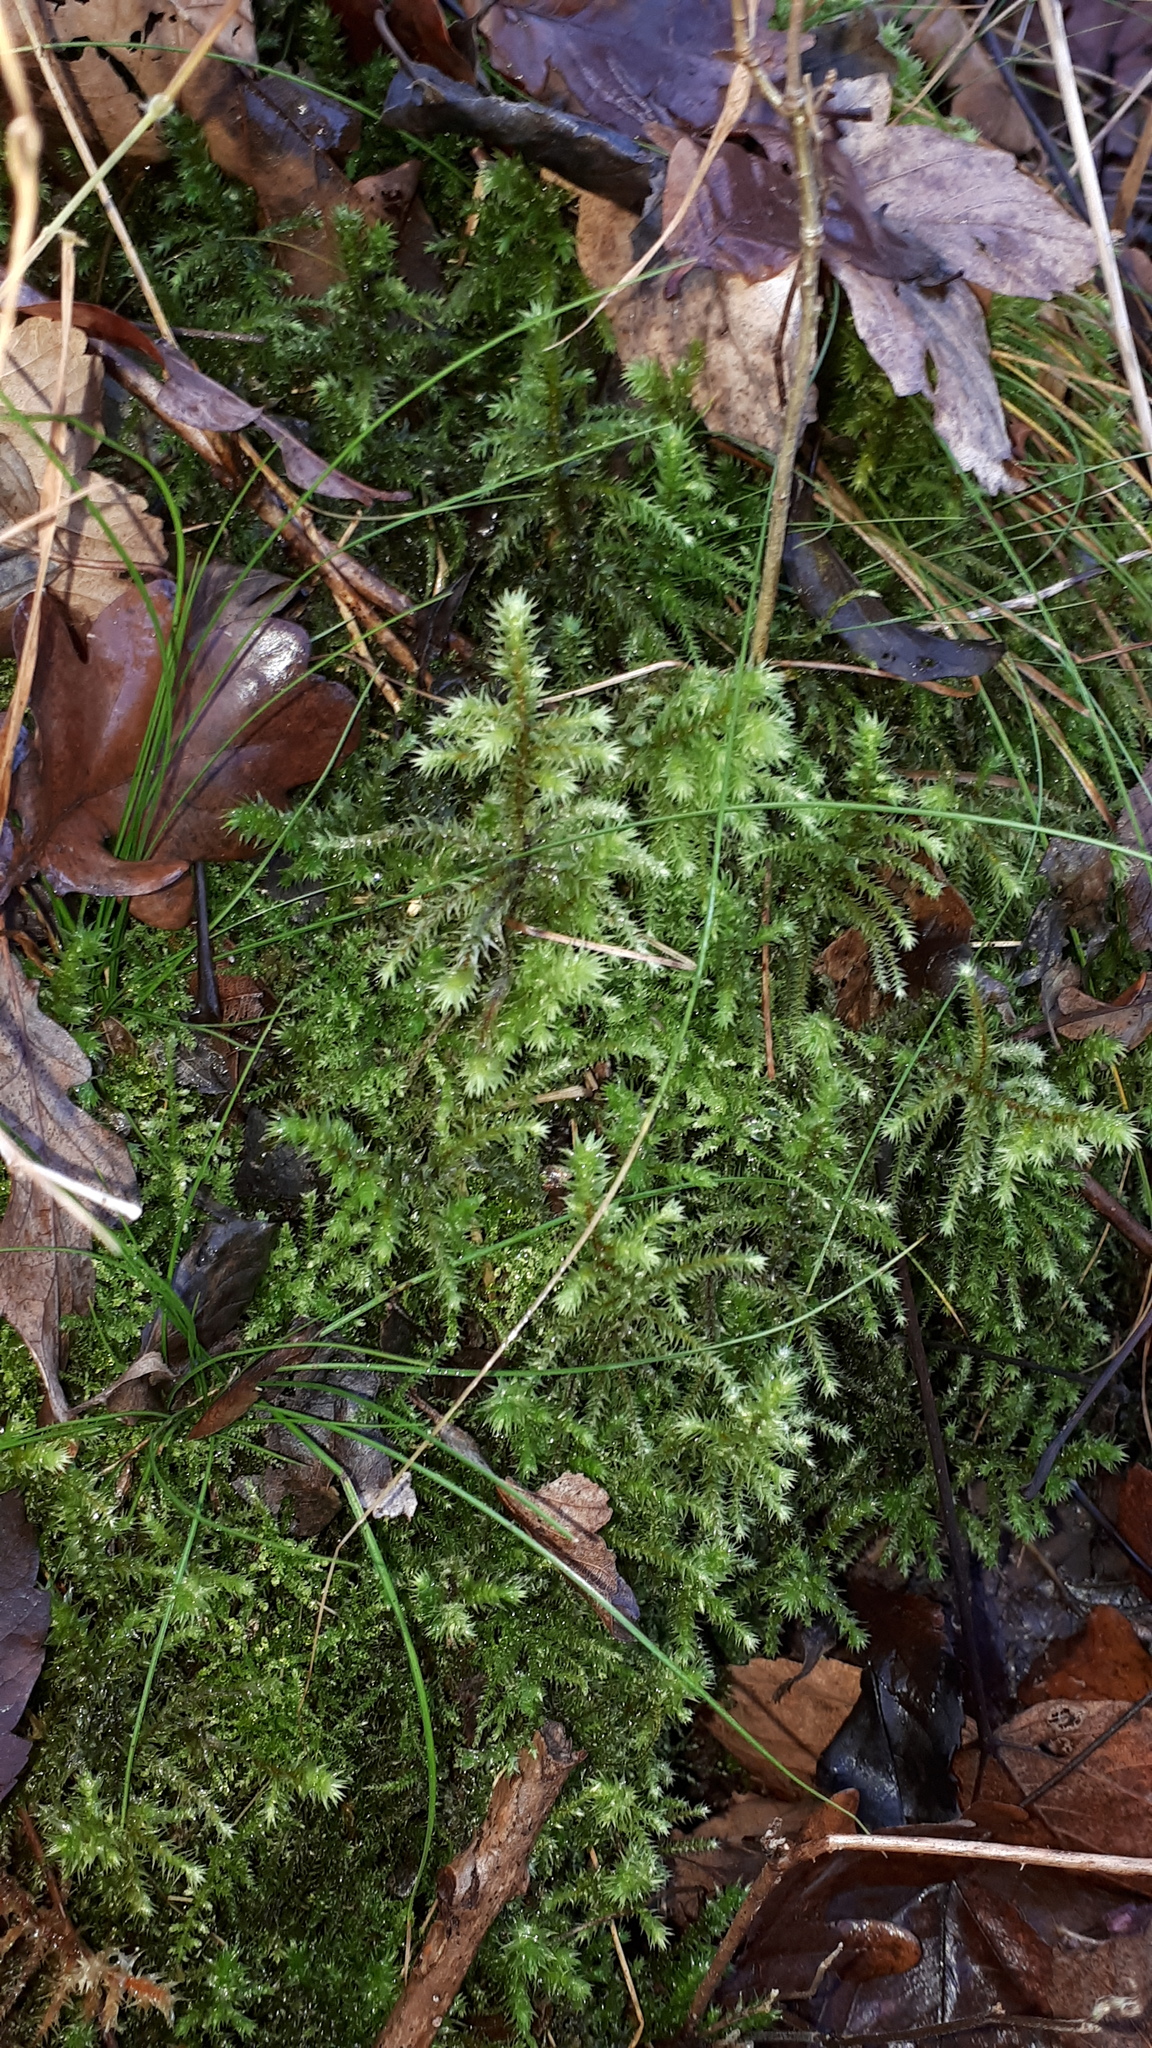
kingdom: Plantae
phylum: Bryophyta
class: Bryopsida
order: Hypnales
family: Hylocomiaceae
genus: Hylocomiadelphus
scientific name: Hylocomiadelphus triquetrus
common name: Rough goose neck moss
